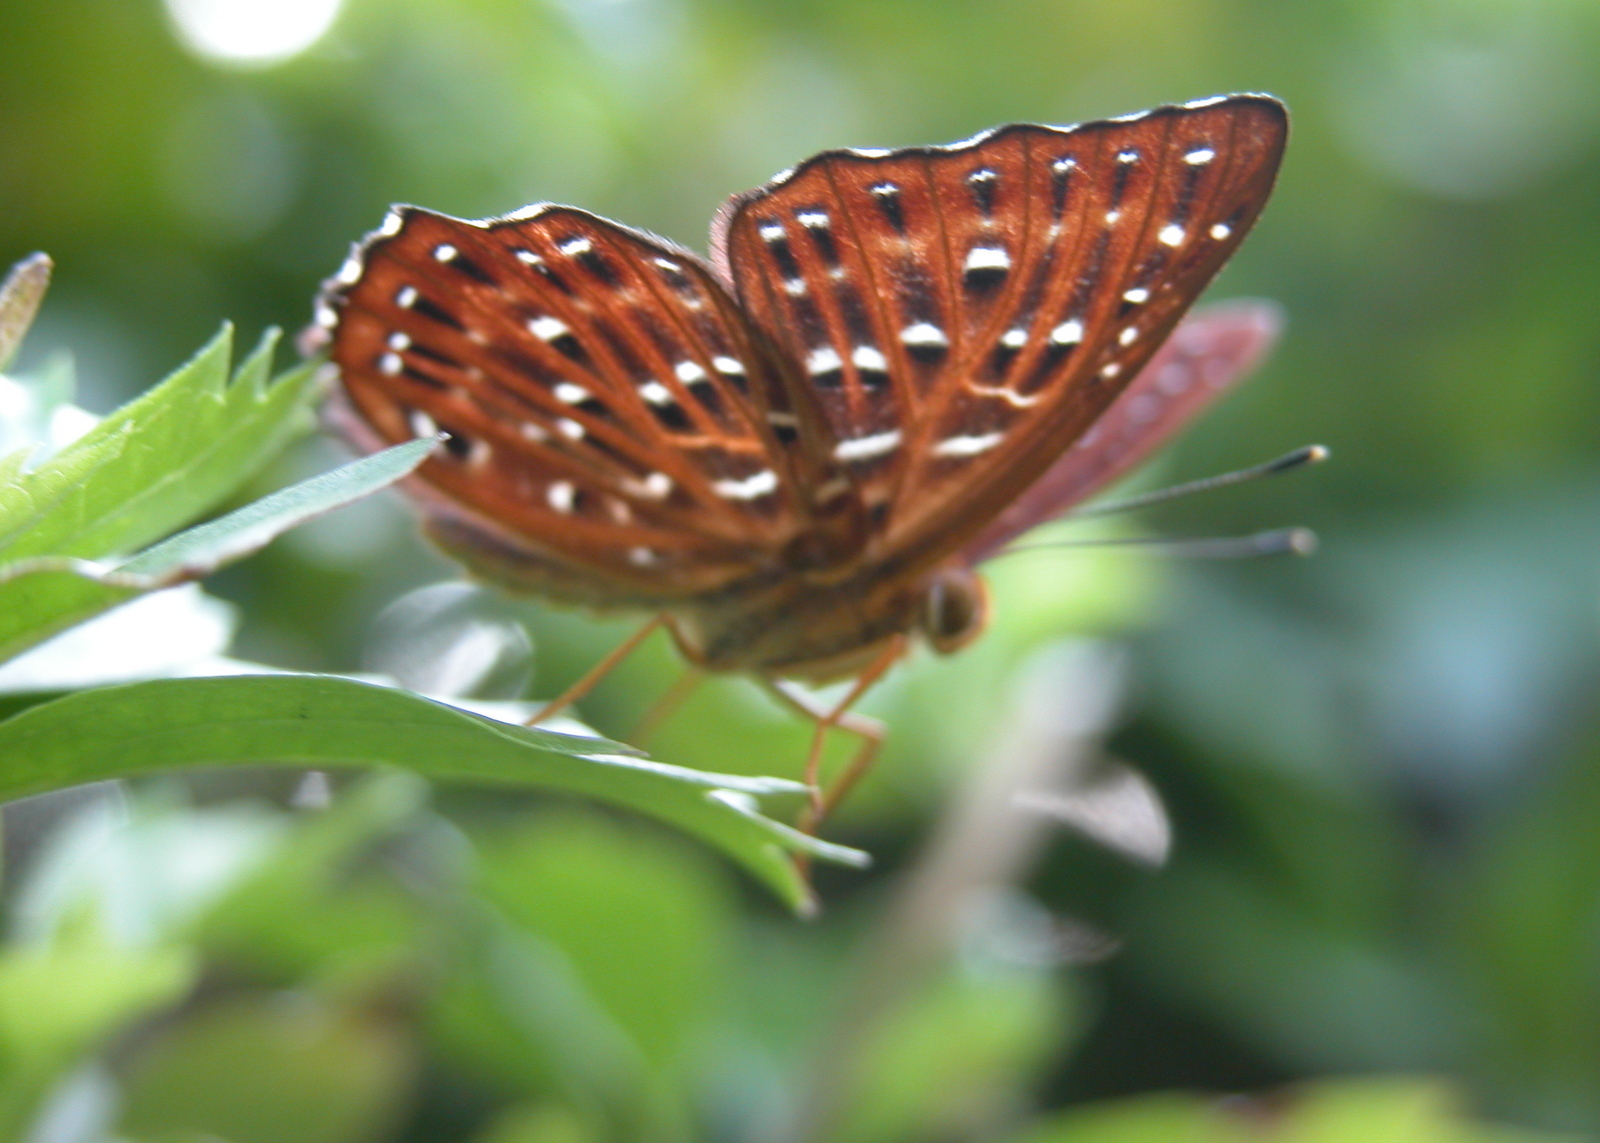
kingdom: Animalia
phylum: Arthropoda
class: Insecta
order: Lepidoptera
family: Riodinidae
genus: Zemeros
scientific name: Zemeros flegyas
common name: Punchinello
